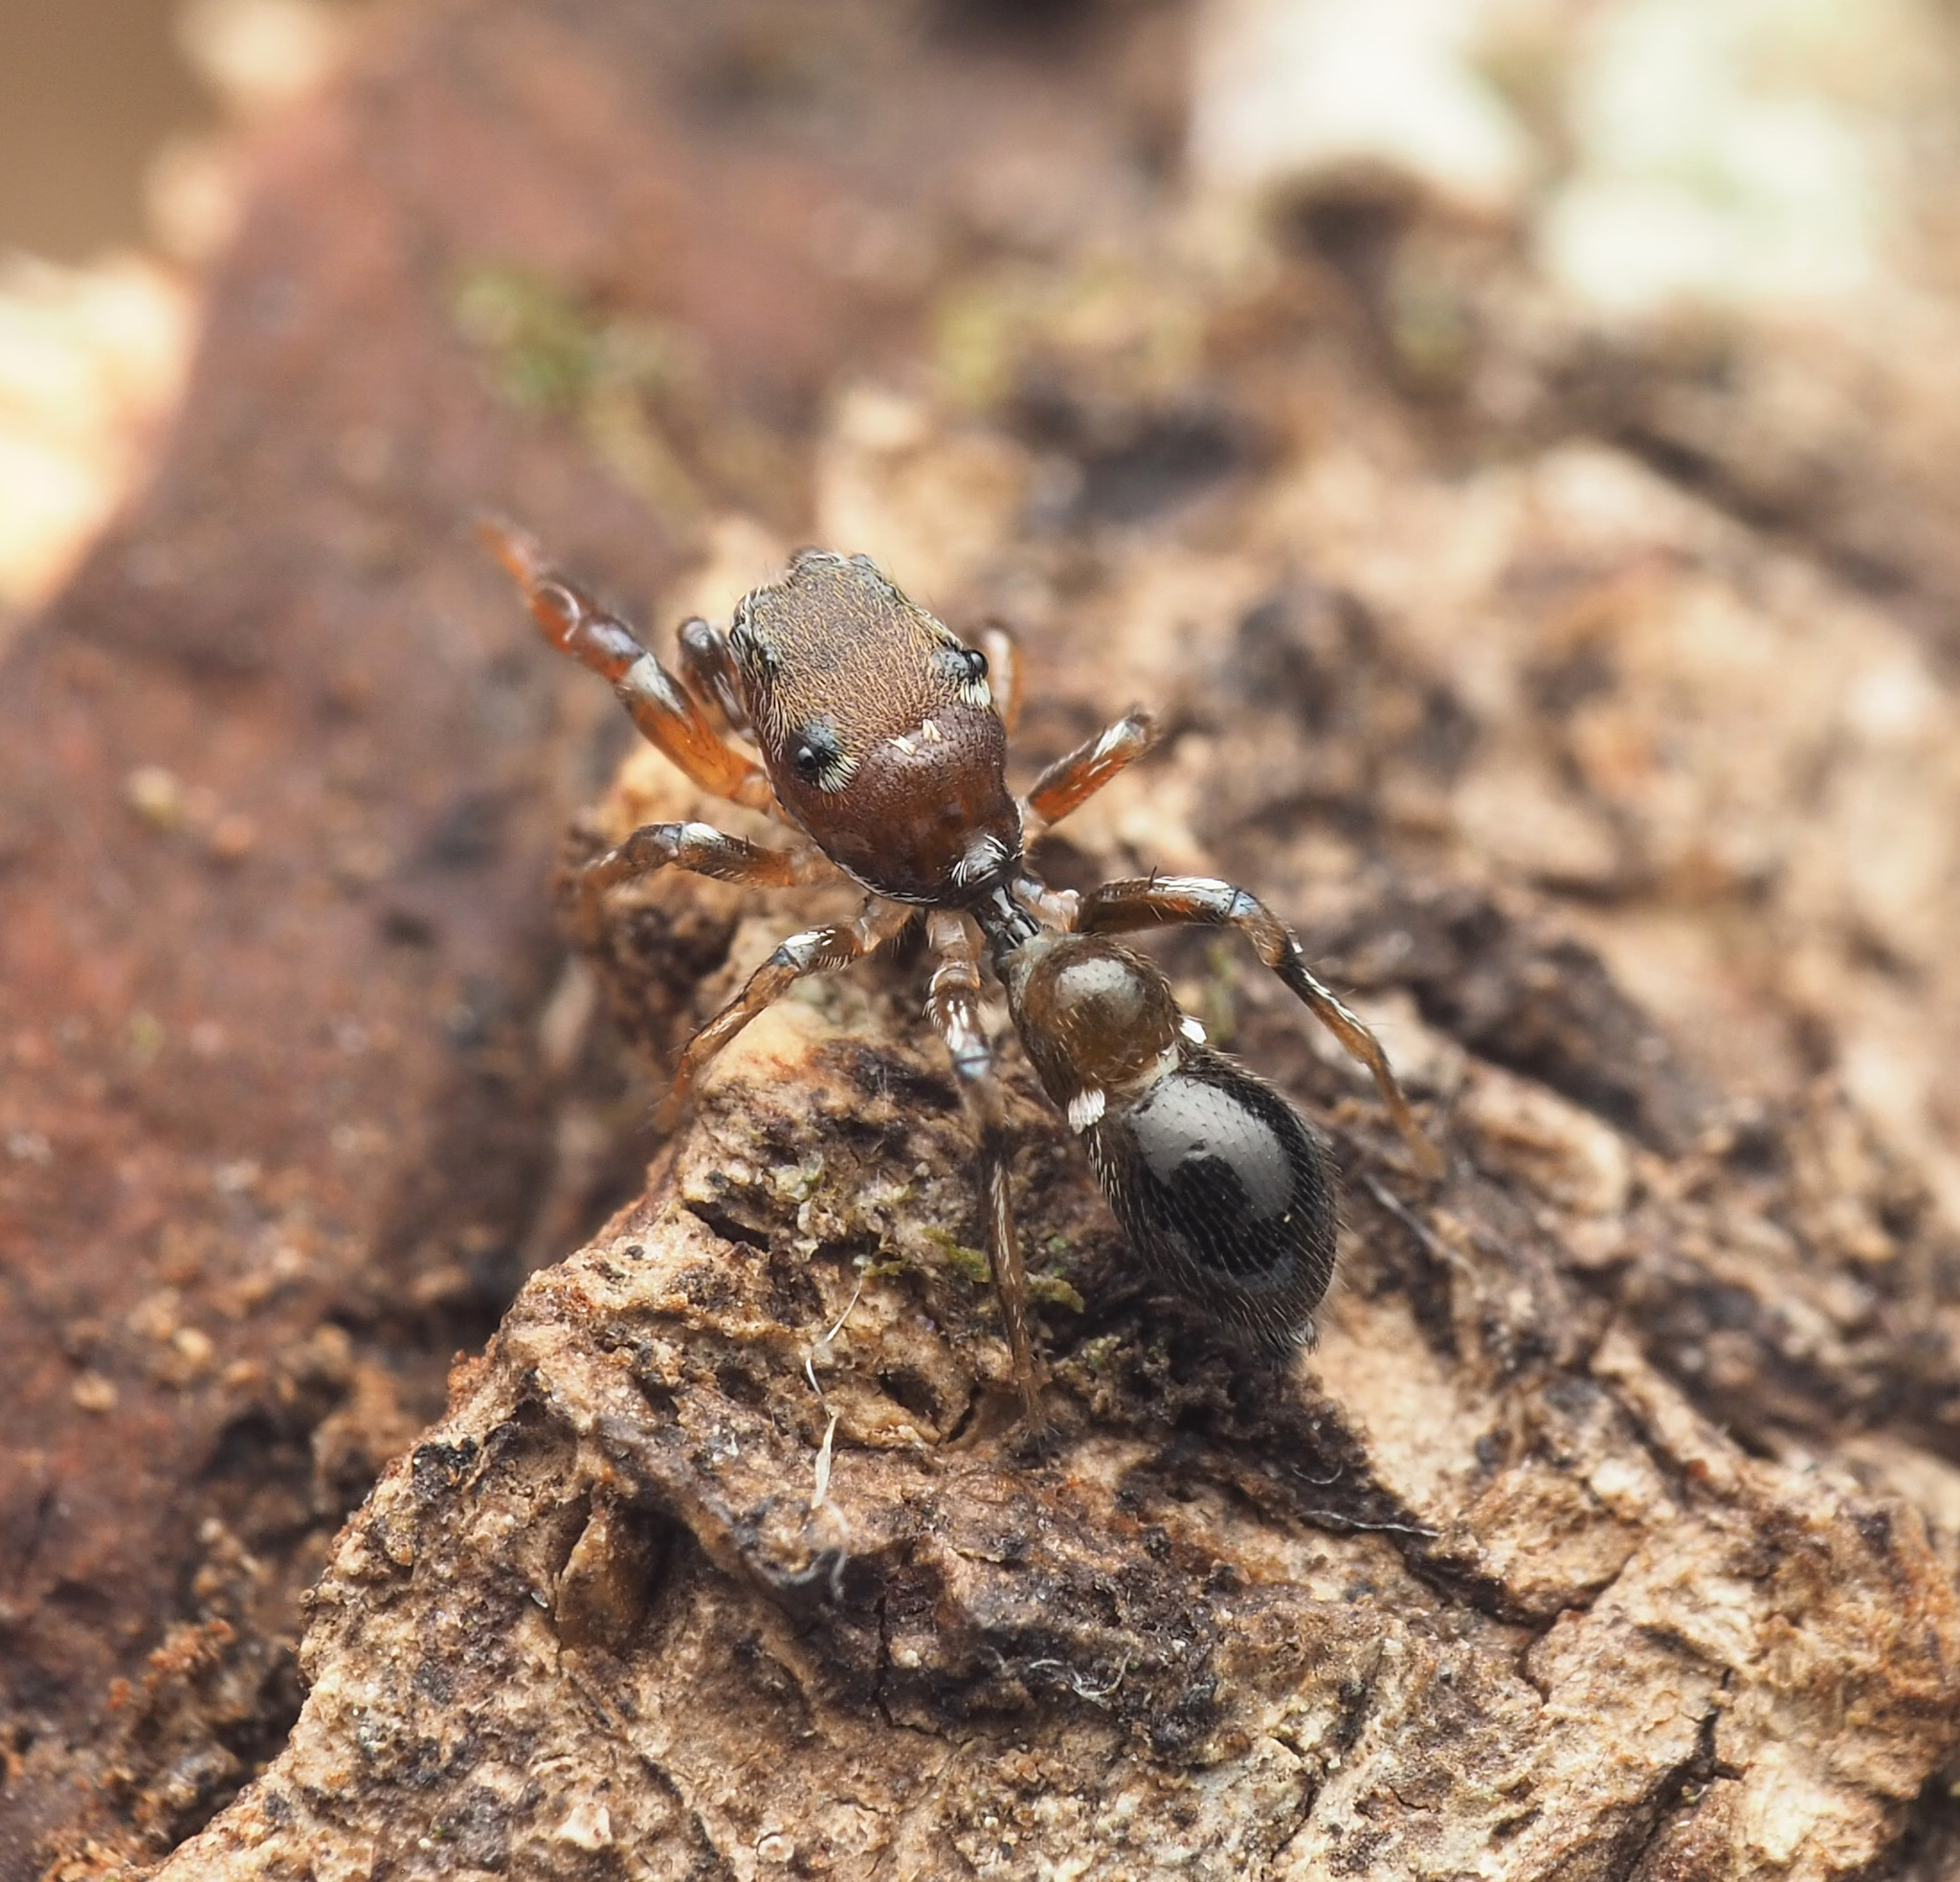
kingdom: Animalia
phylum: Arthropoda
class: Arachnida
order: Araneae
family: Salticidae
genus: Rhombonotus
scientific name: Rhombonotus
